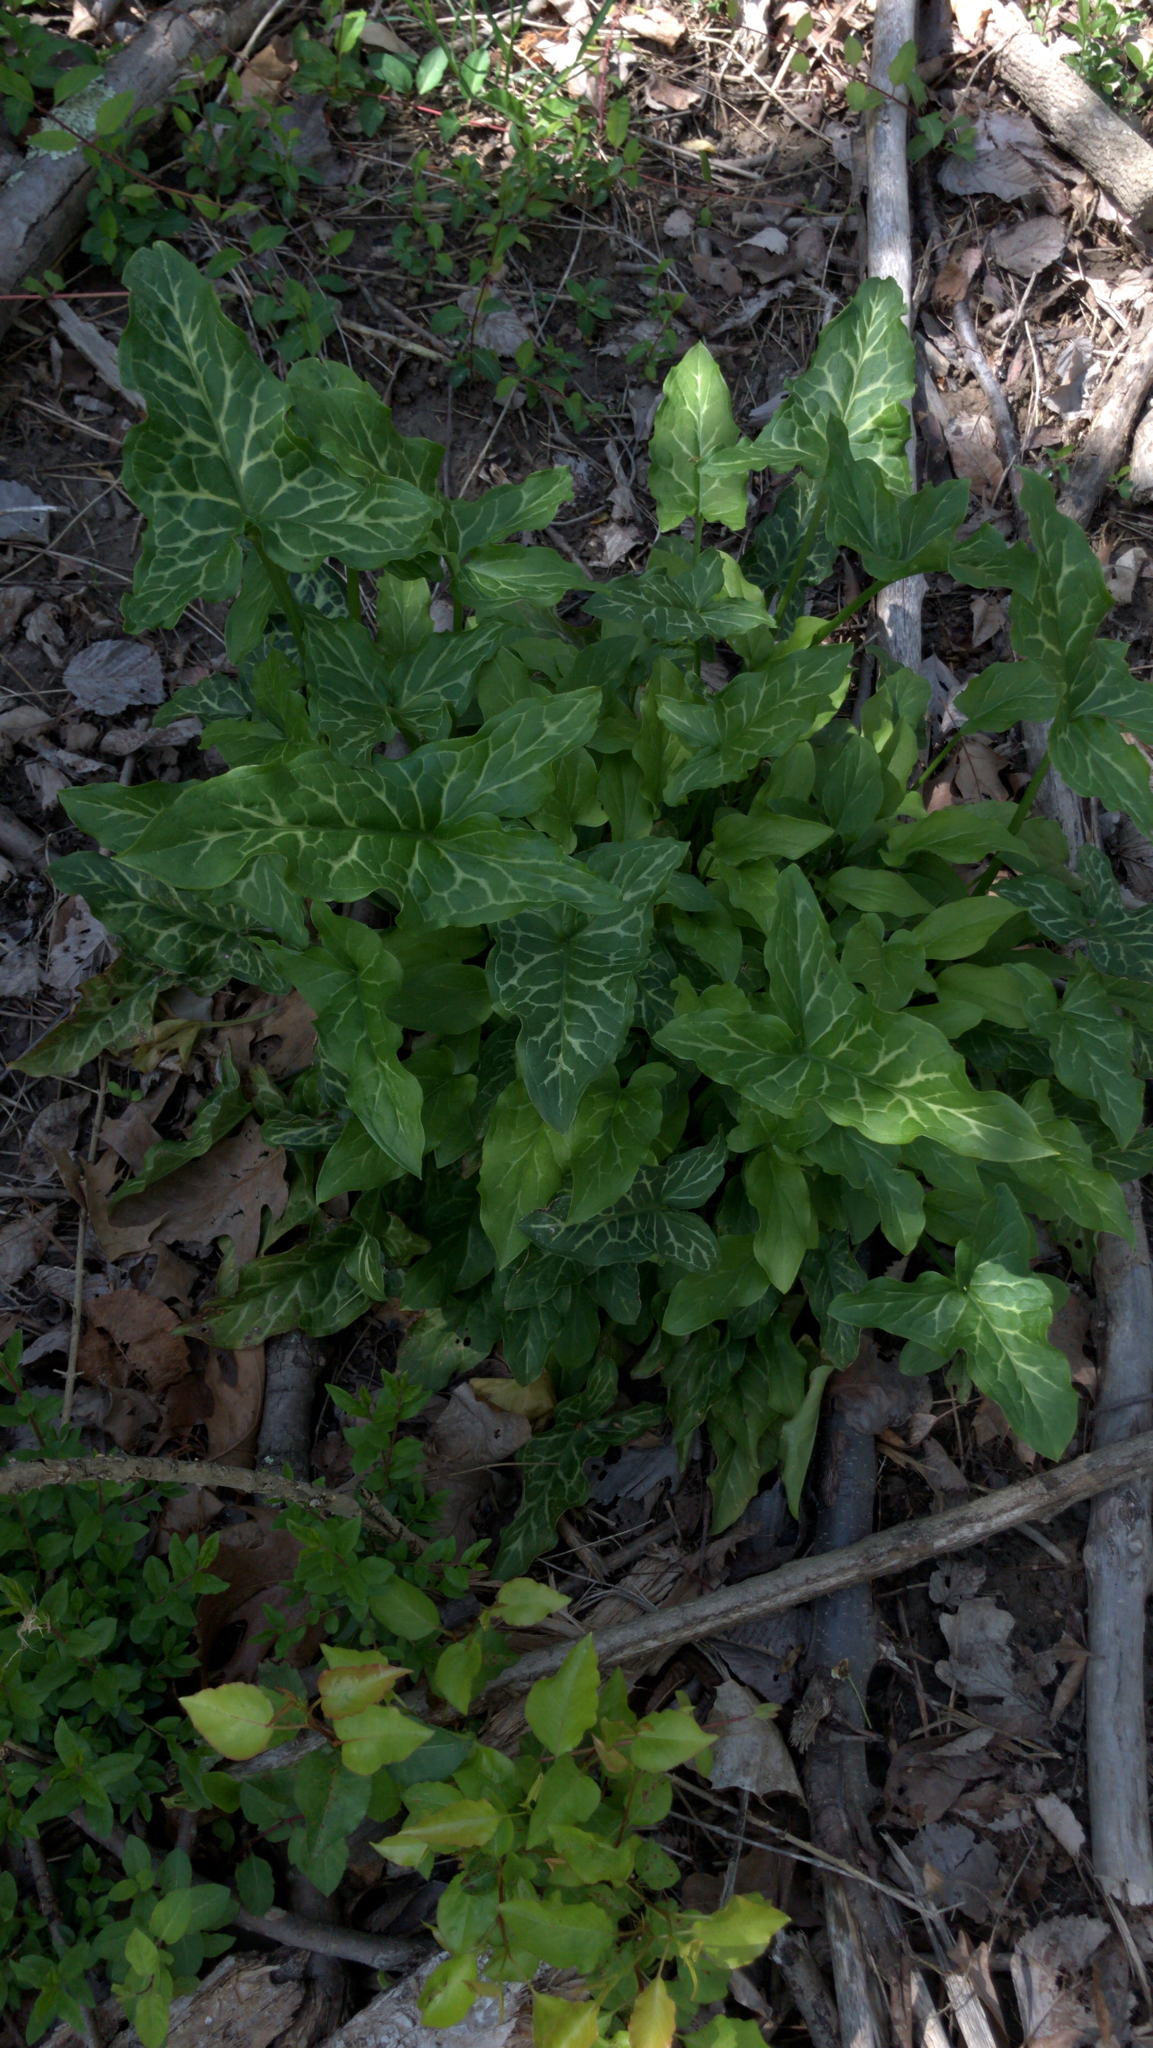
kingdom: Plantae
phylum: Tracheophyta
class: Liliopsida
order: Alismatales
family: Araceae
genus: Arum
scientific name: Arum italicum
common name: Italian lords-and-ladies
